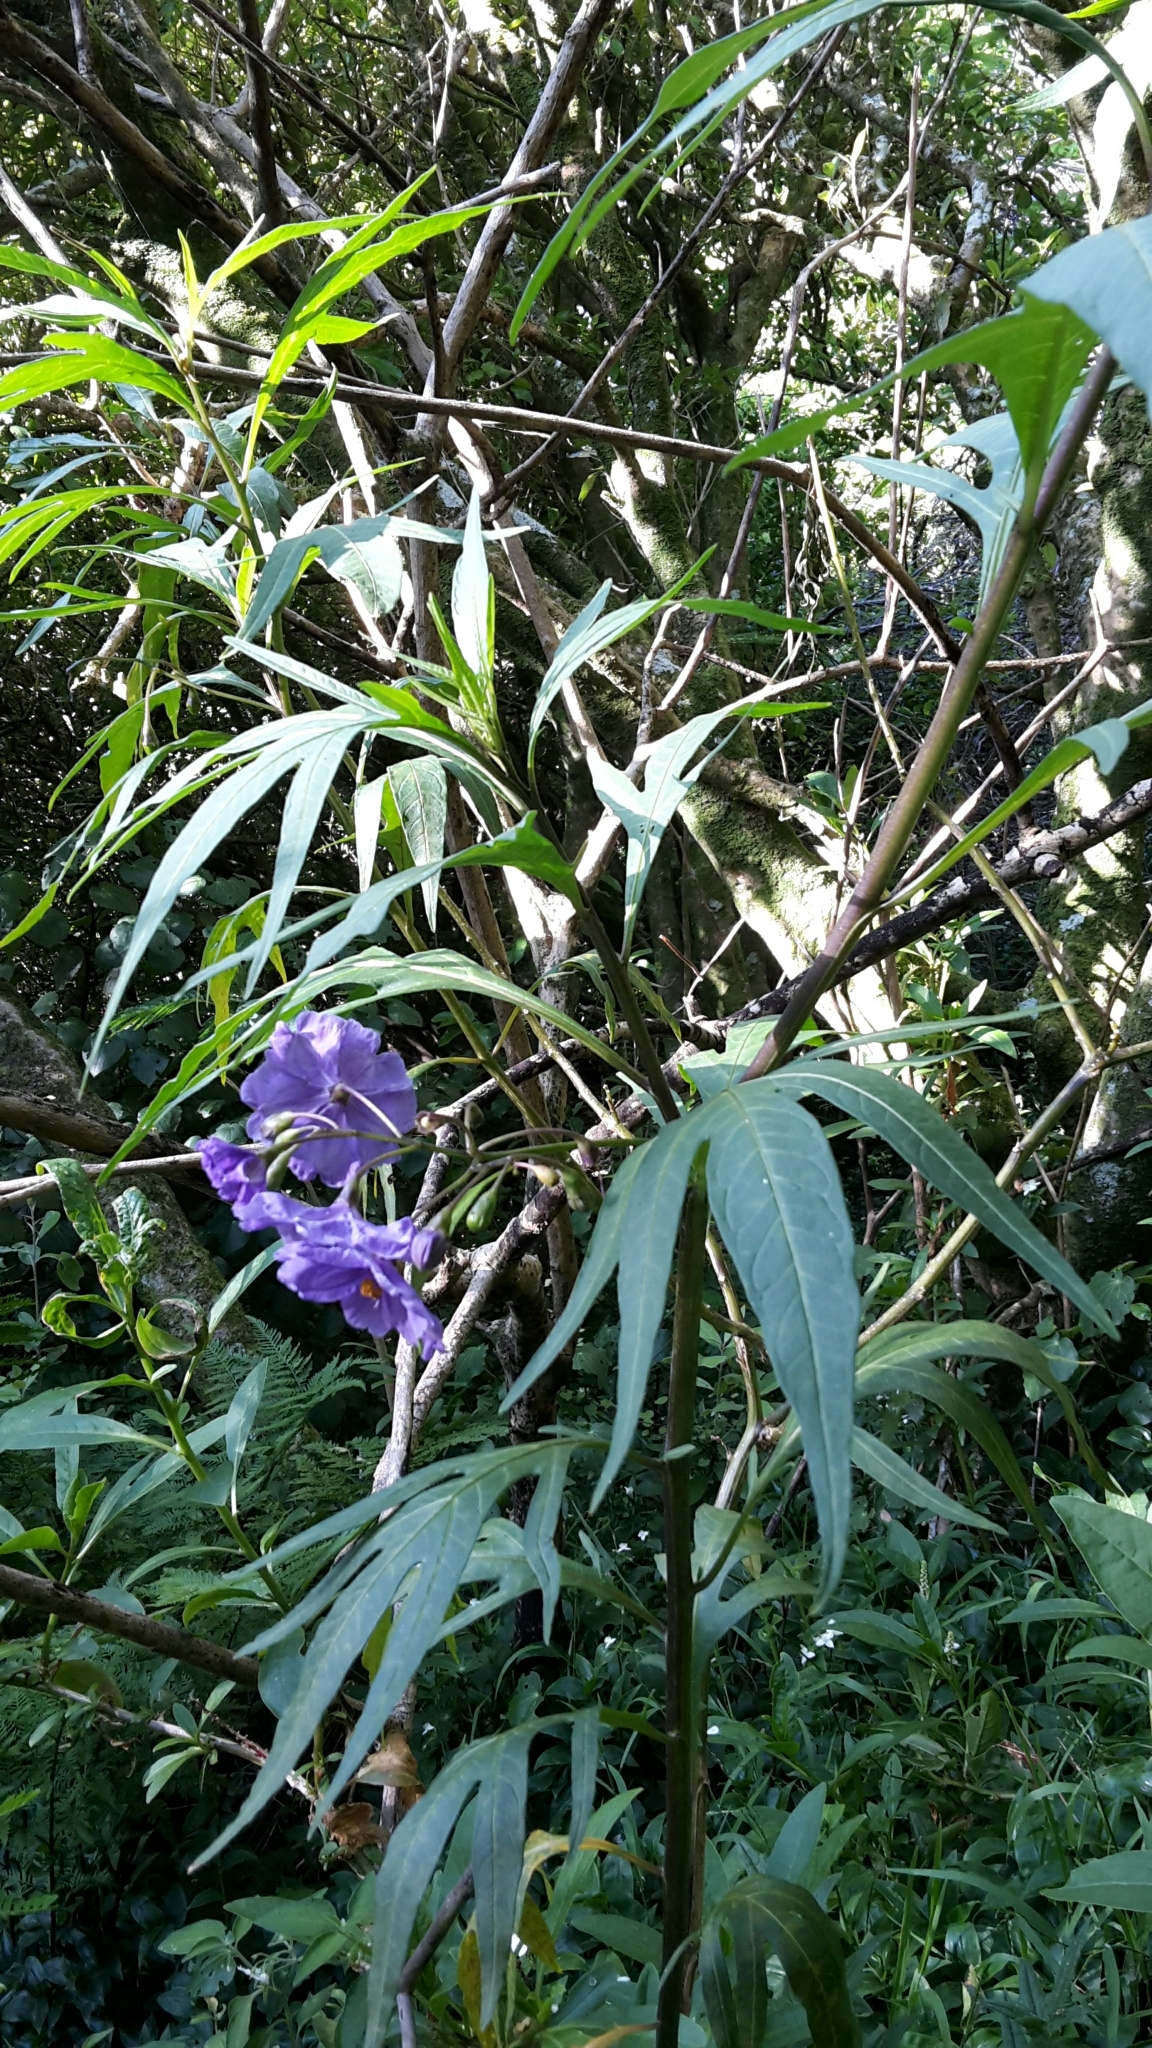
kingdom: Plantae
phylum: Tracheophyta
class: Magnoliopsida
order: Solanales
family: Solanaceae
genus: Solanum
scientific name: Solanum laciniatum
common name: Kangaroo-apple
